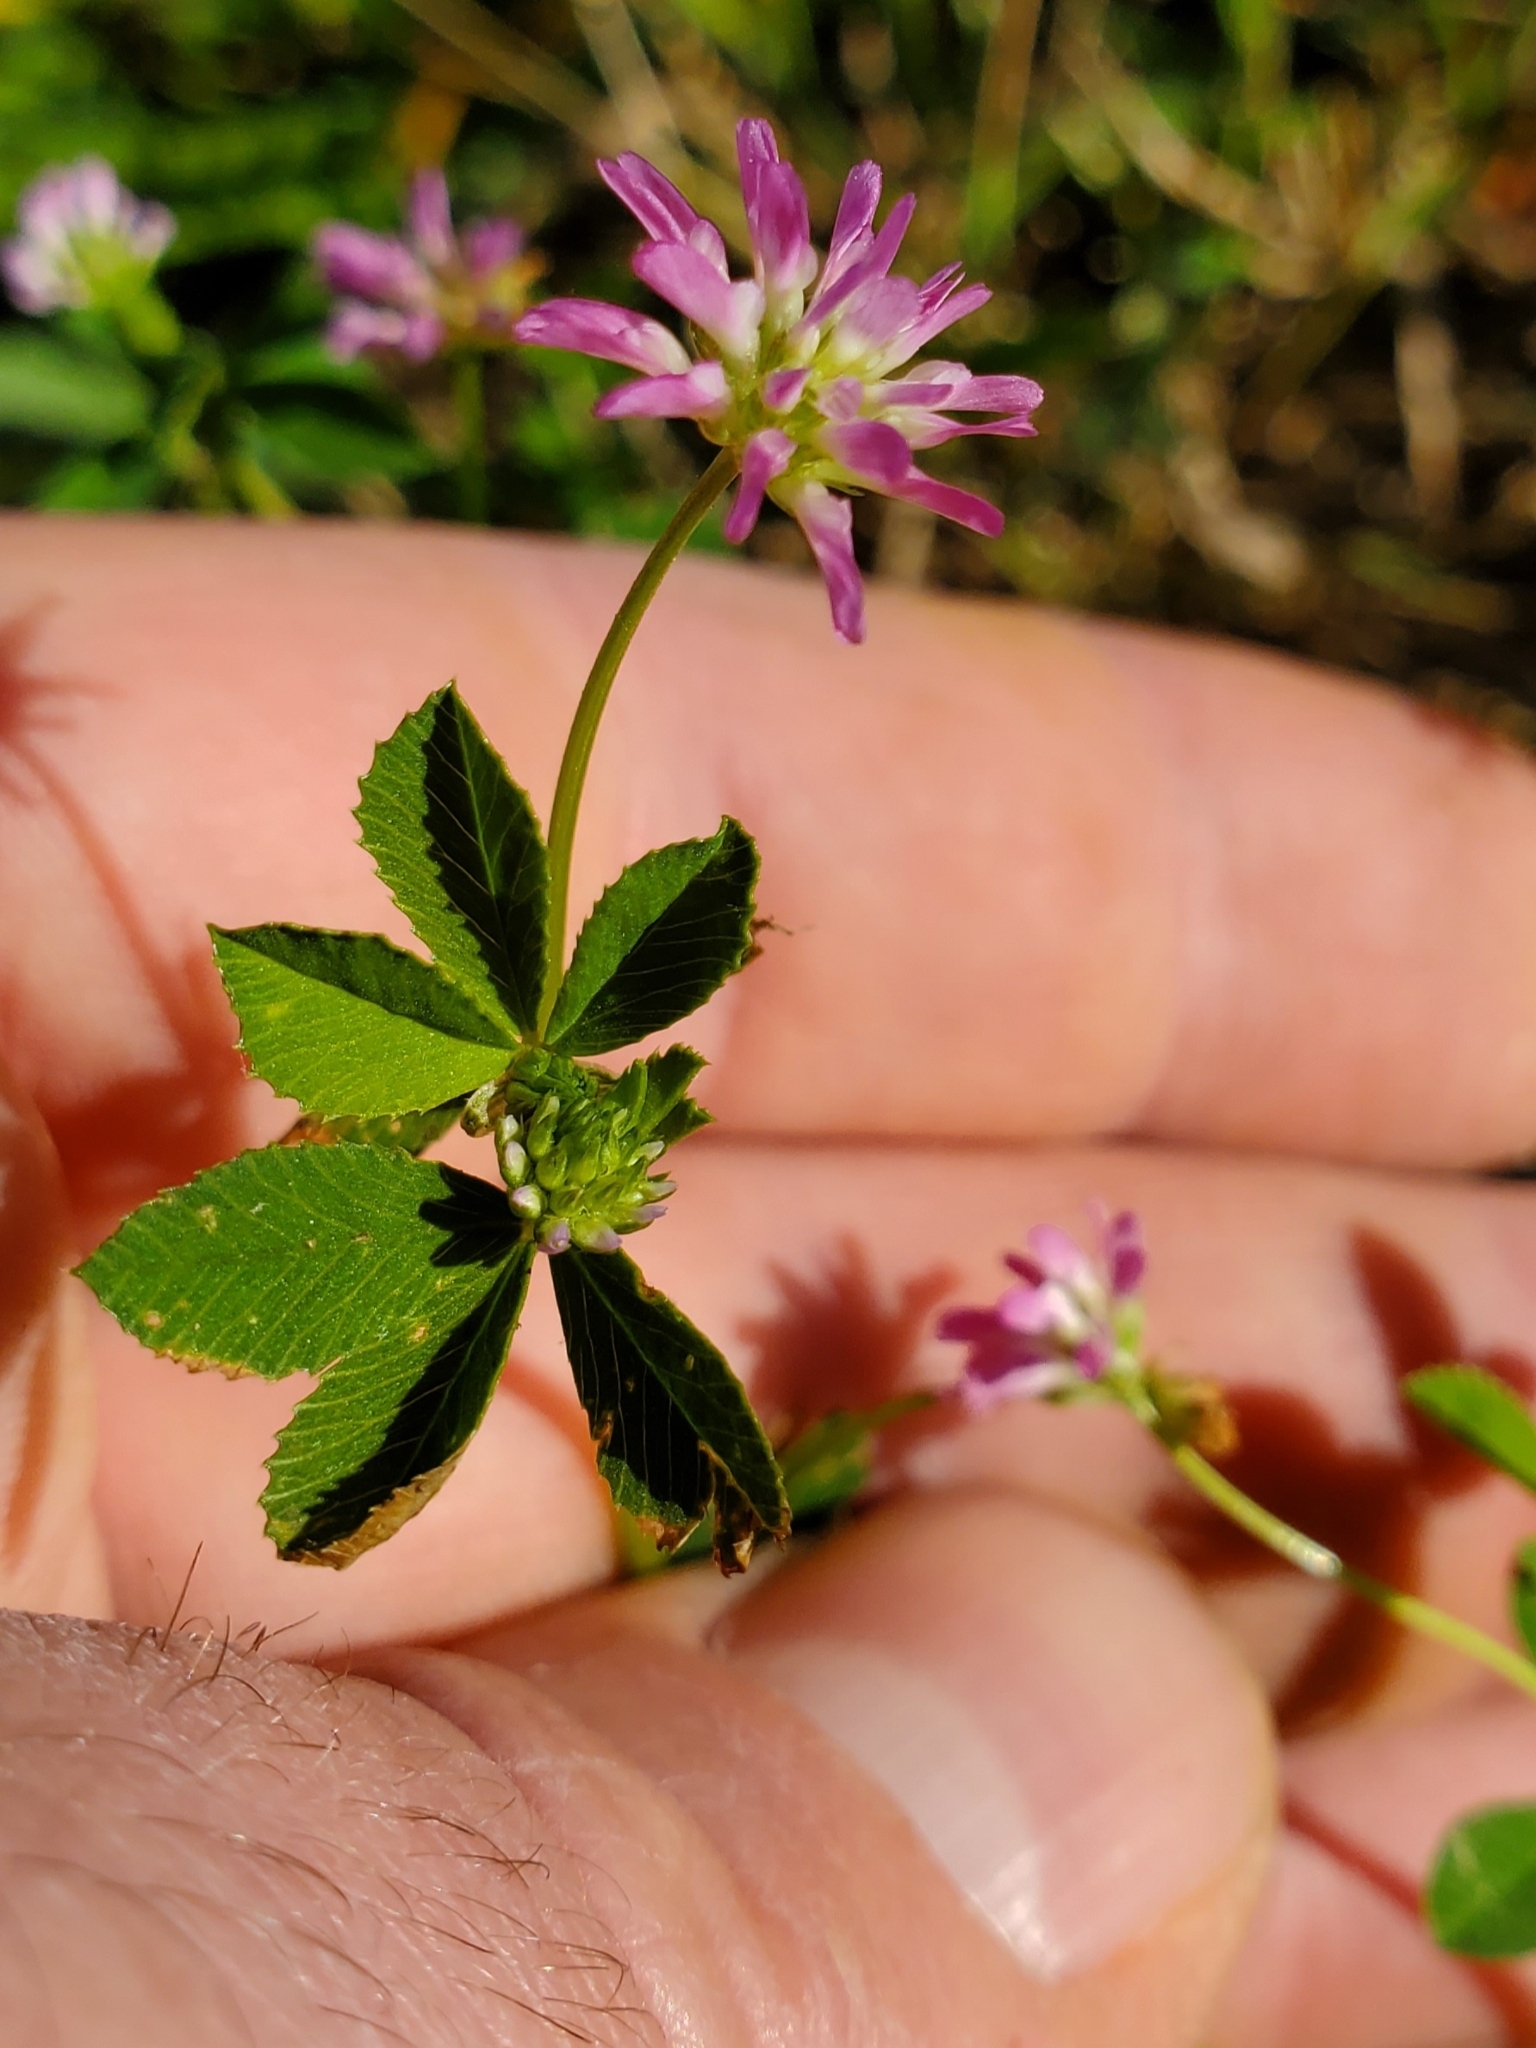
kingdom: Plantae
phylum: Tracheophyta
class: Magnoliopsida
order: Fabales
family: Fabaceae
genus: Trifolium
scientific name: Trifolium resupinatum
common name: Reversed clover
